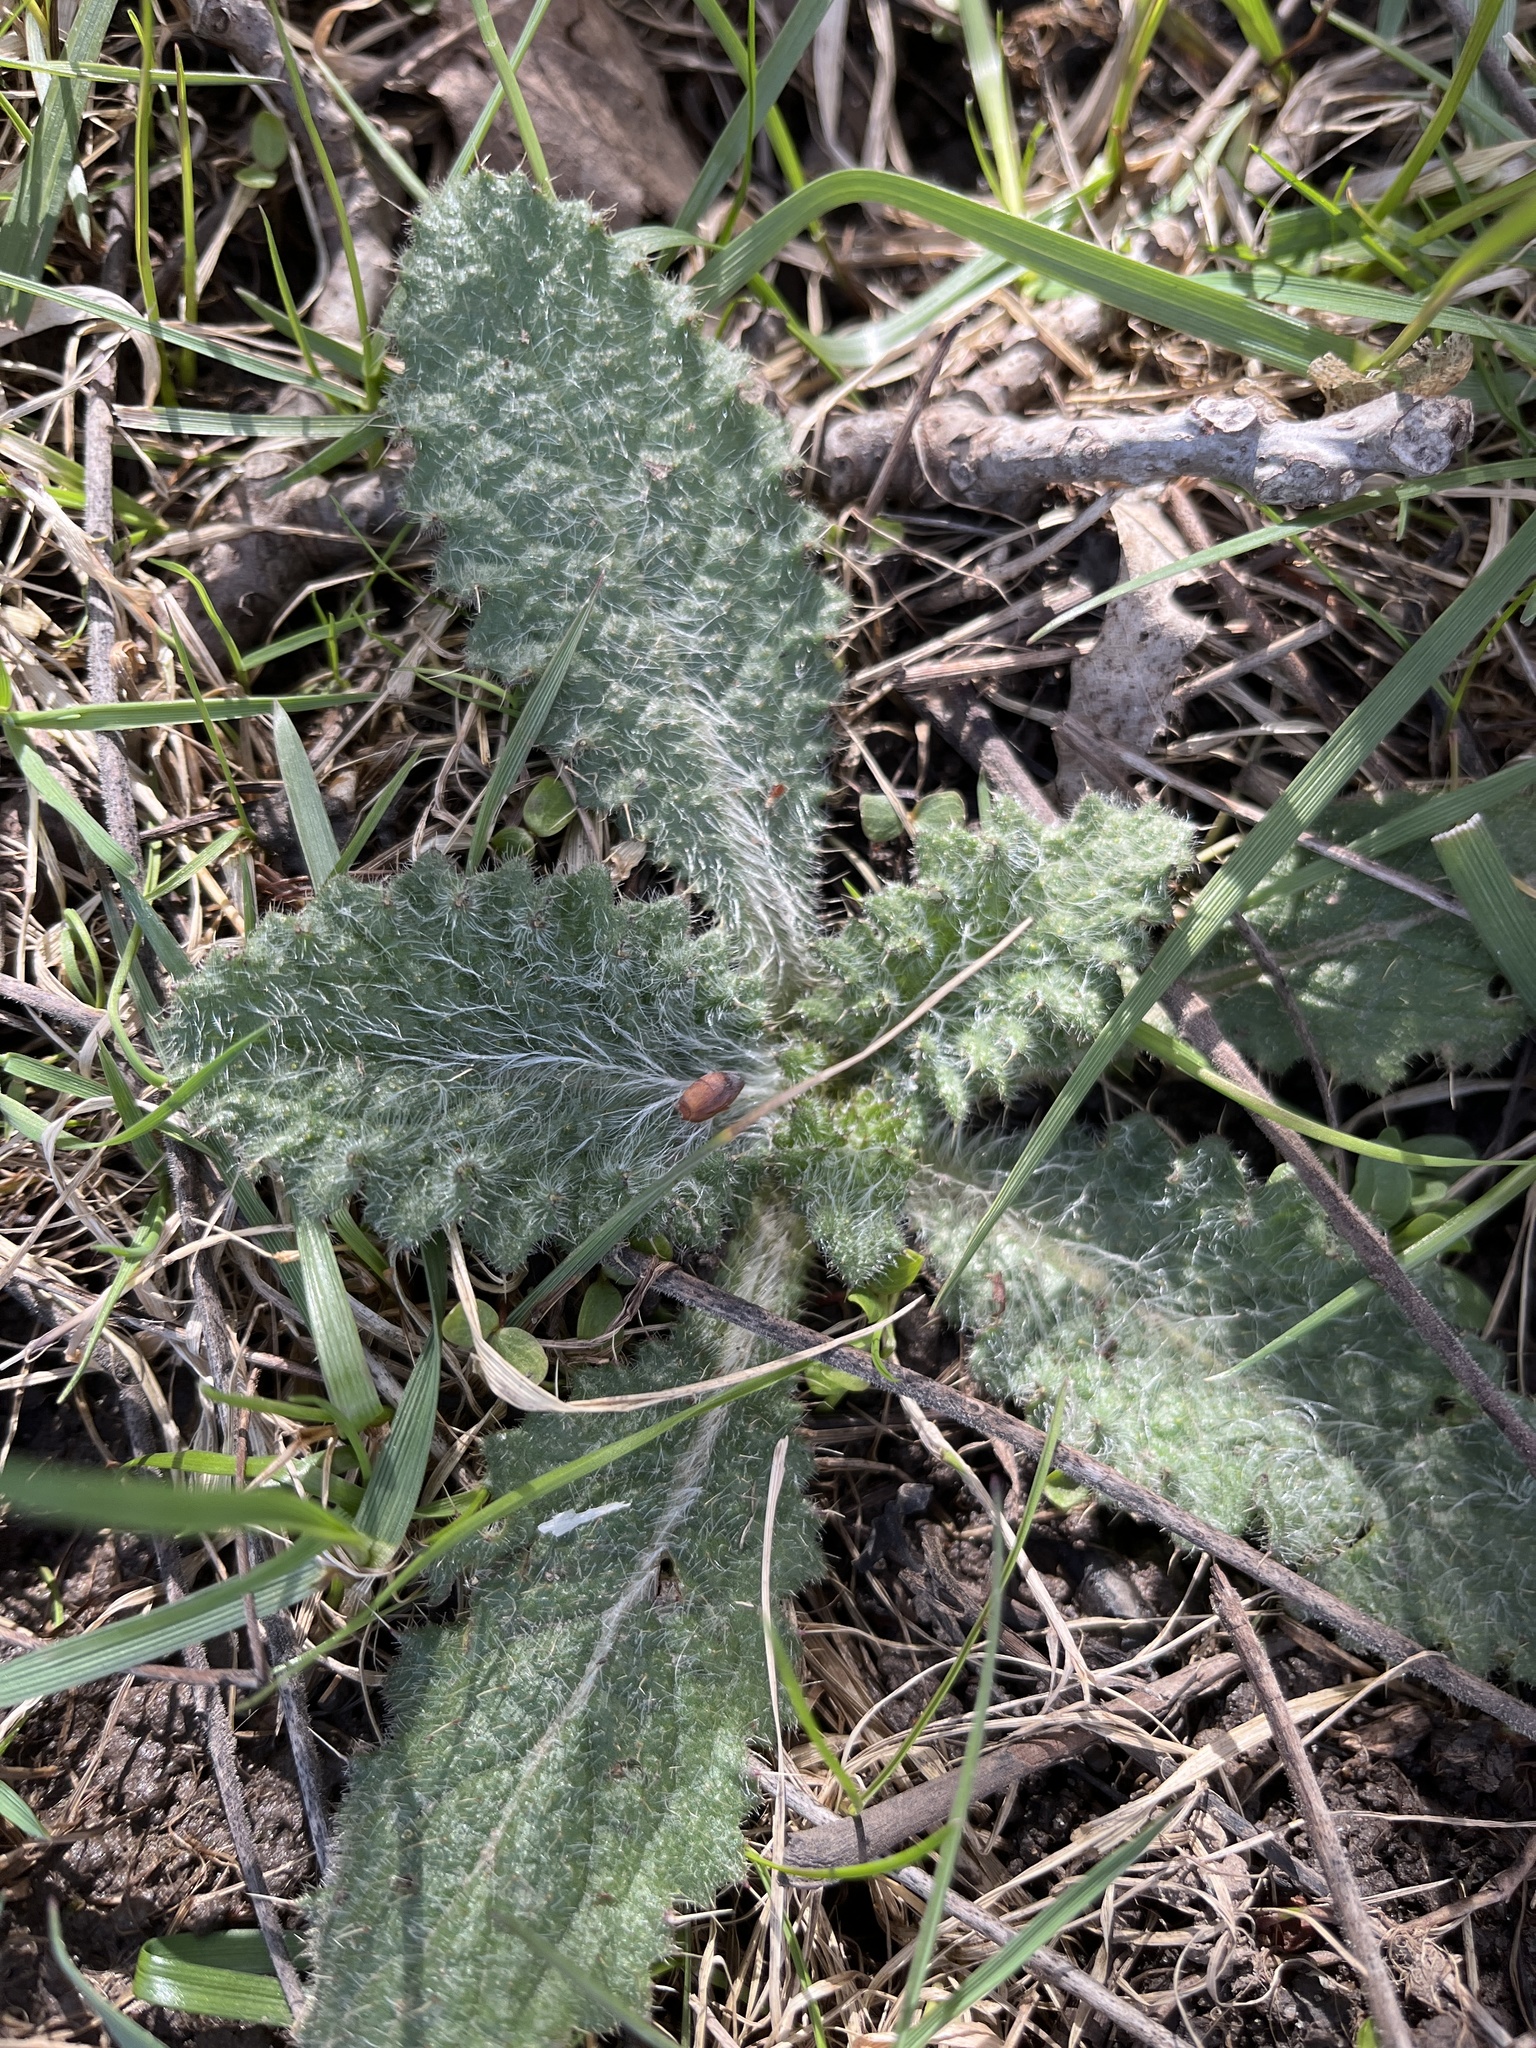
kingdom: Plantae
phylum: Tracheophyta
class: Magnoliopsida
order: Asterales
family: Asteraceae
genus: Cirsium
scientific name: Cirsium vulgare
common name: Bull thistle
